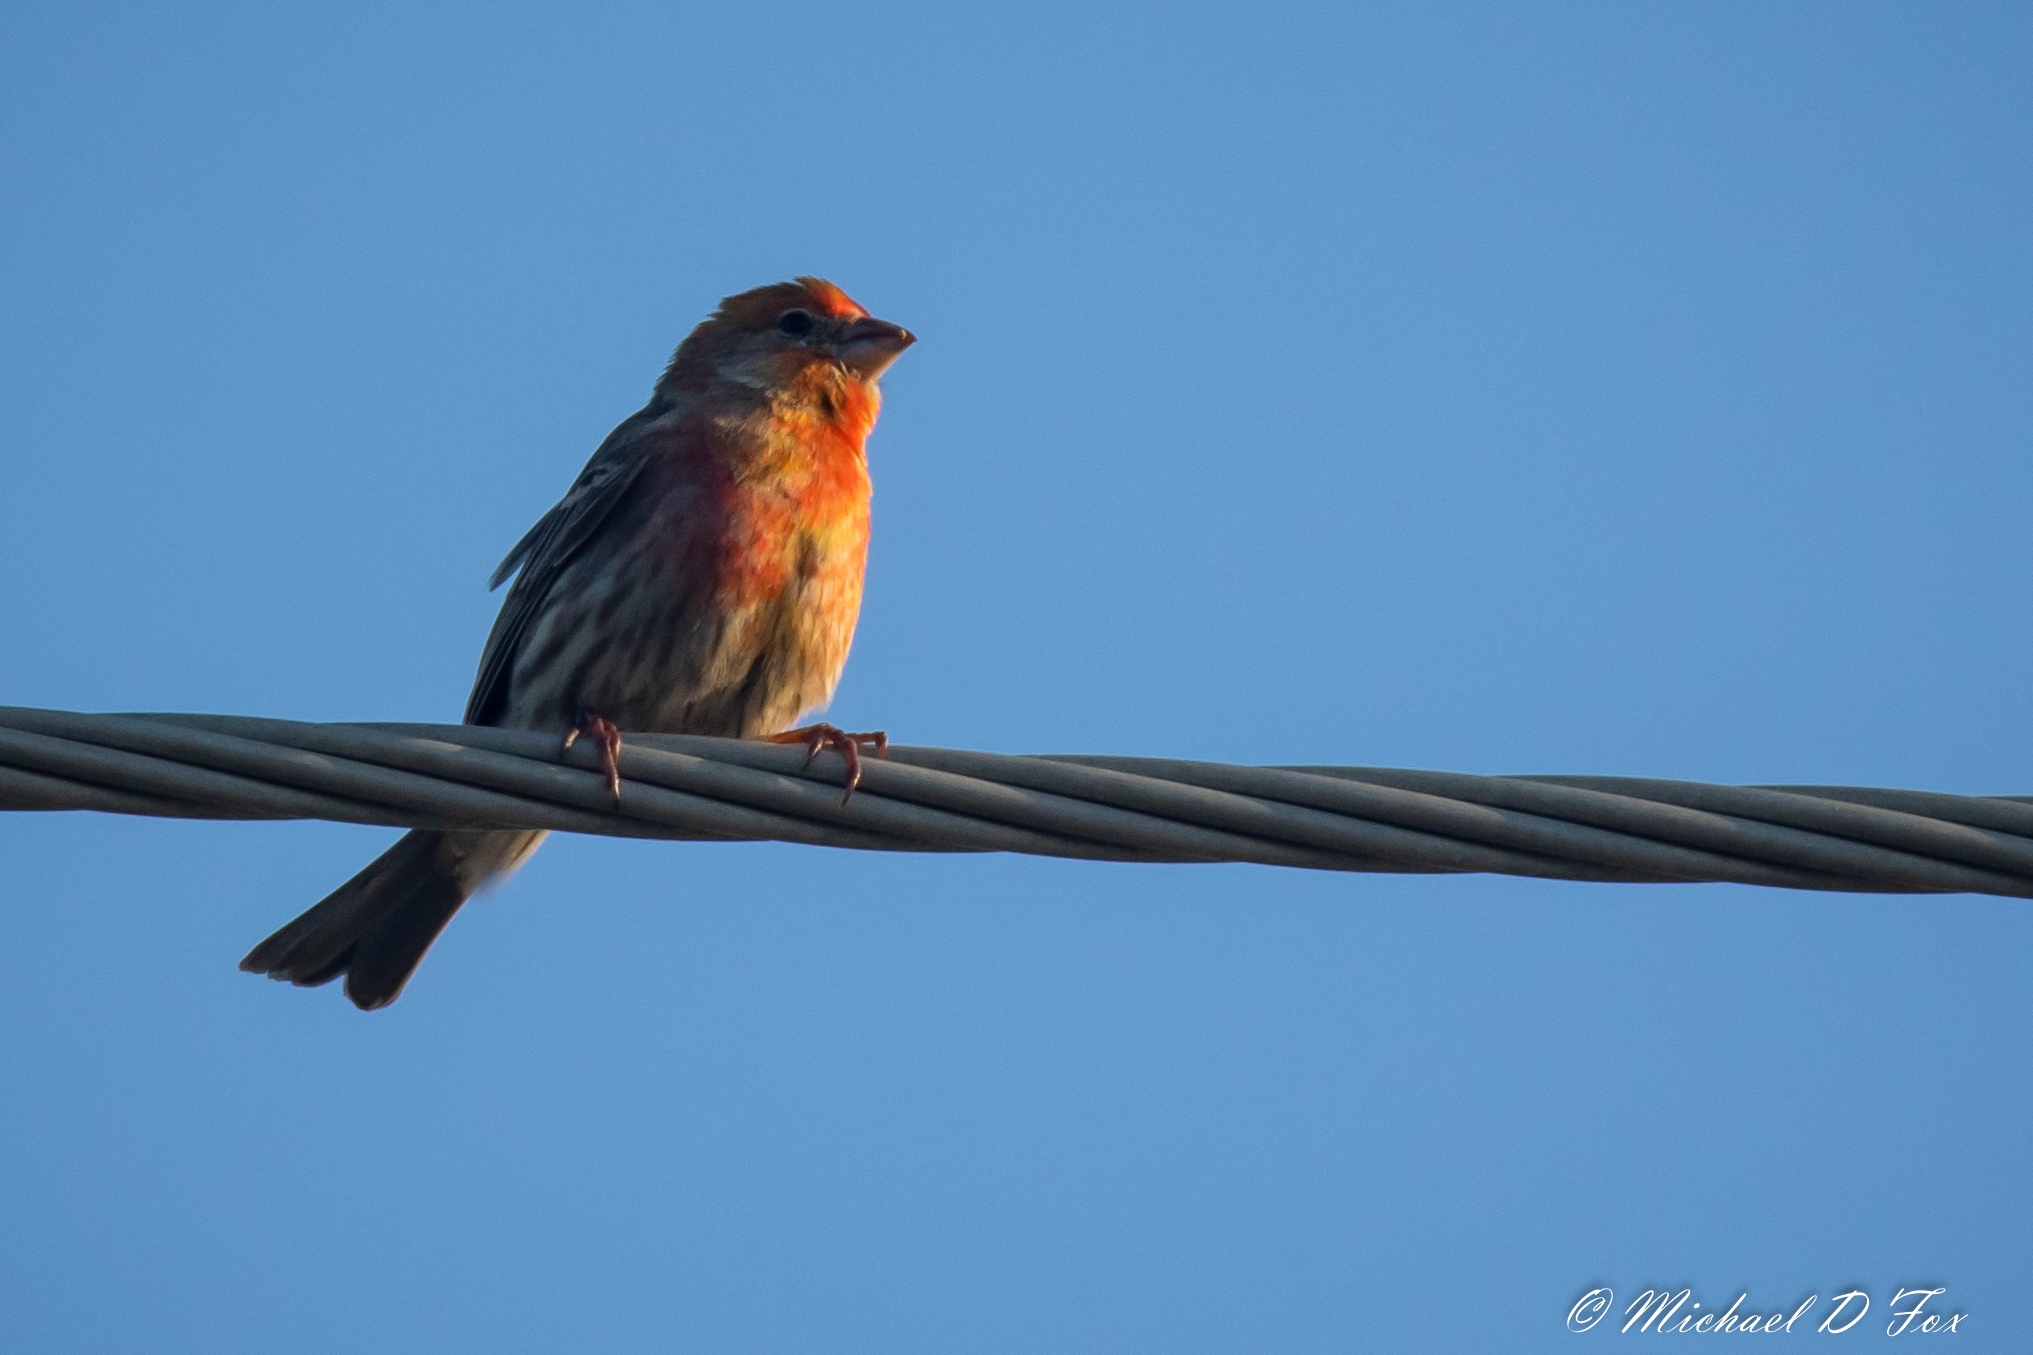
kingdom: Animalia
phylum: Chordata
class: Aves
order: Passeriformes
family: Fringillidae
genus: Haemorhous
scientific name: Haemorhous mexicanus
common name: House finch
